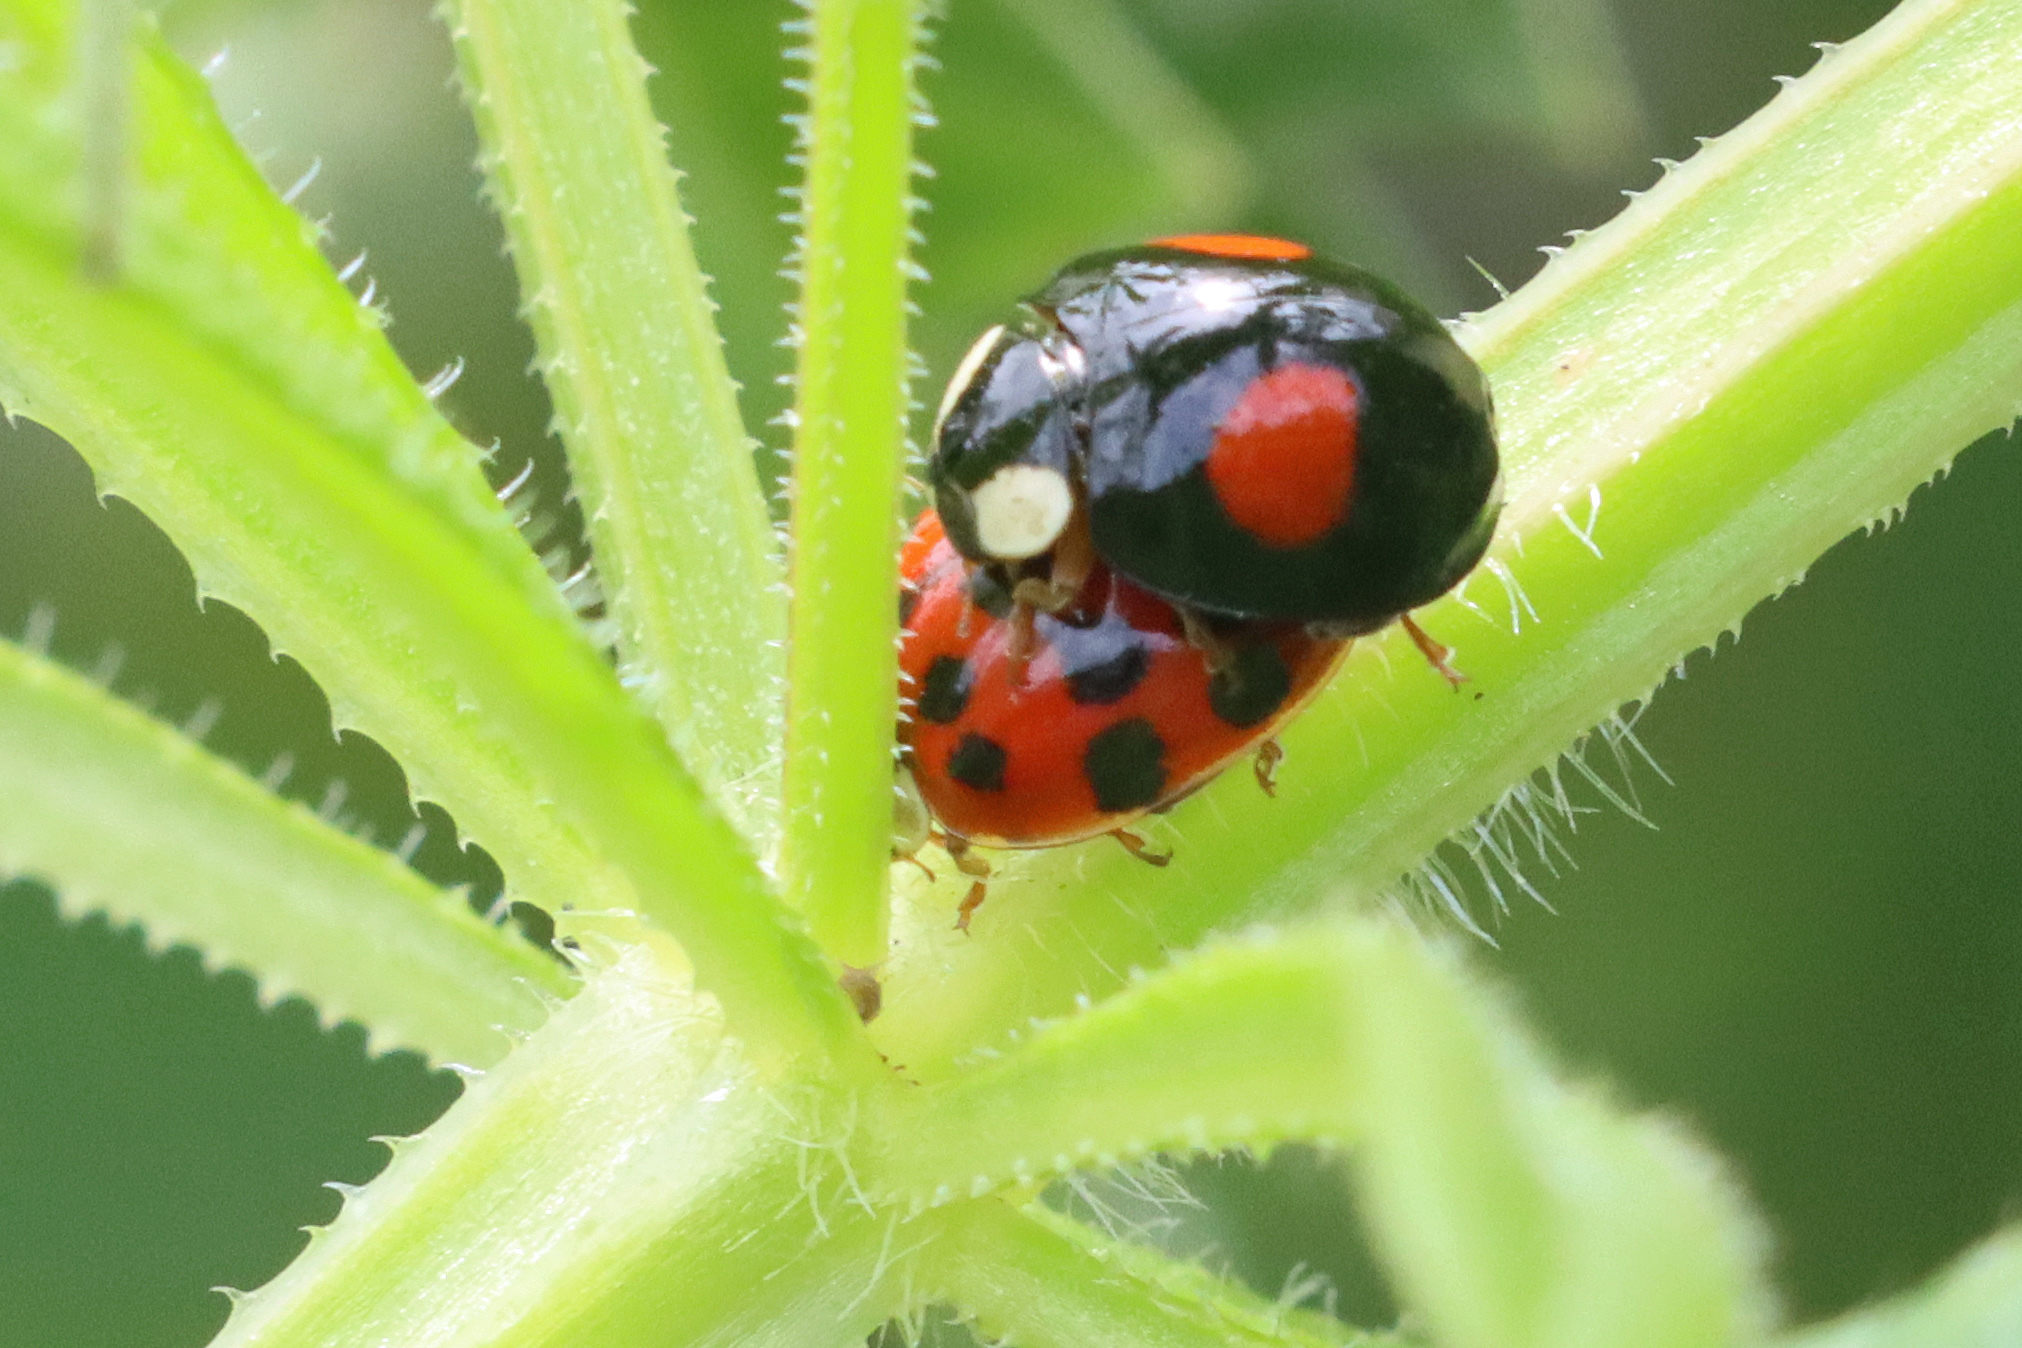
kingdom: Animalia
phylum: Arthropoda
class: Insecta
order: Coleoptera
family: Coccinellidae
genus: Harmonia
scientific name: Harmonia axyridis
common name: Harlequin ladybird
